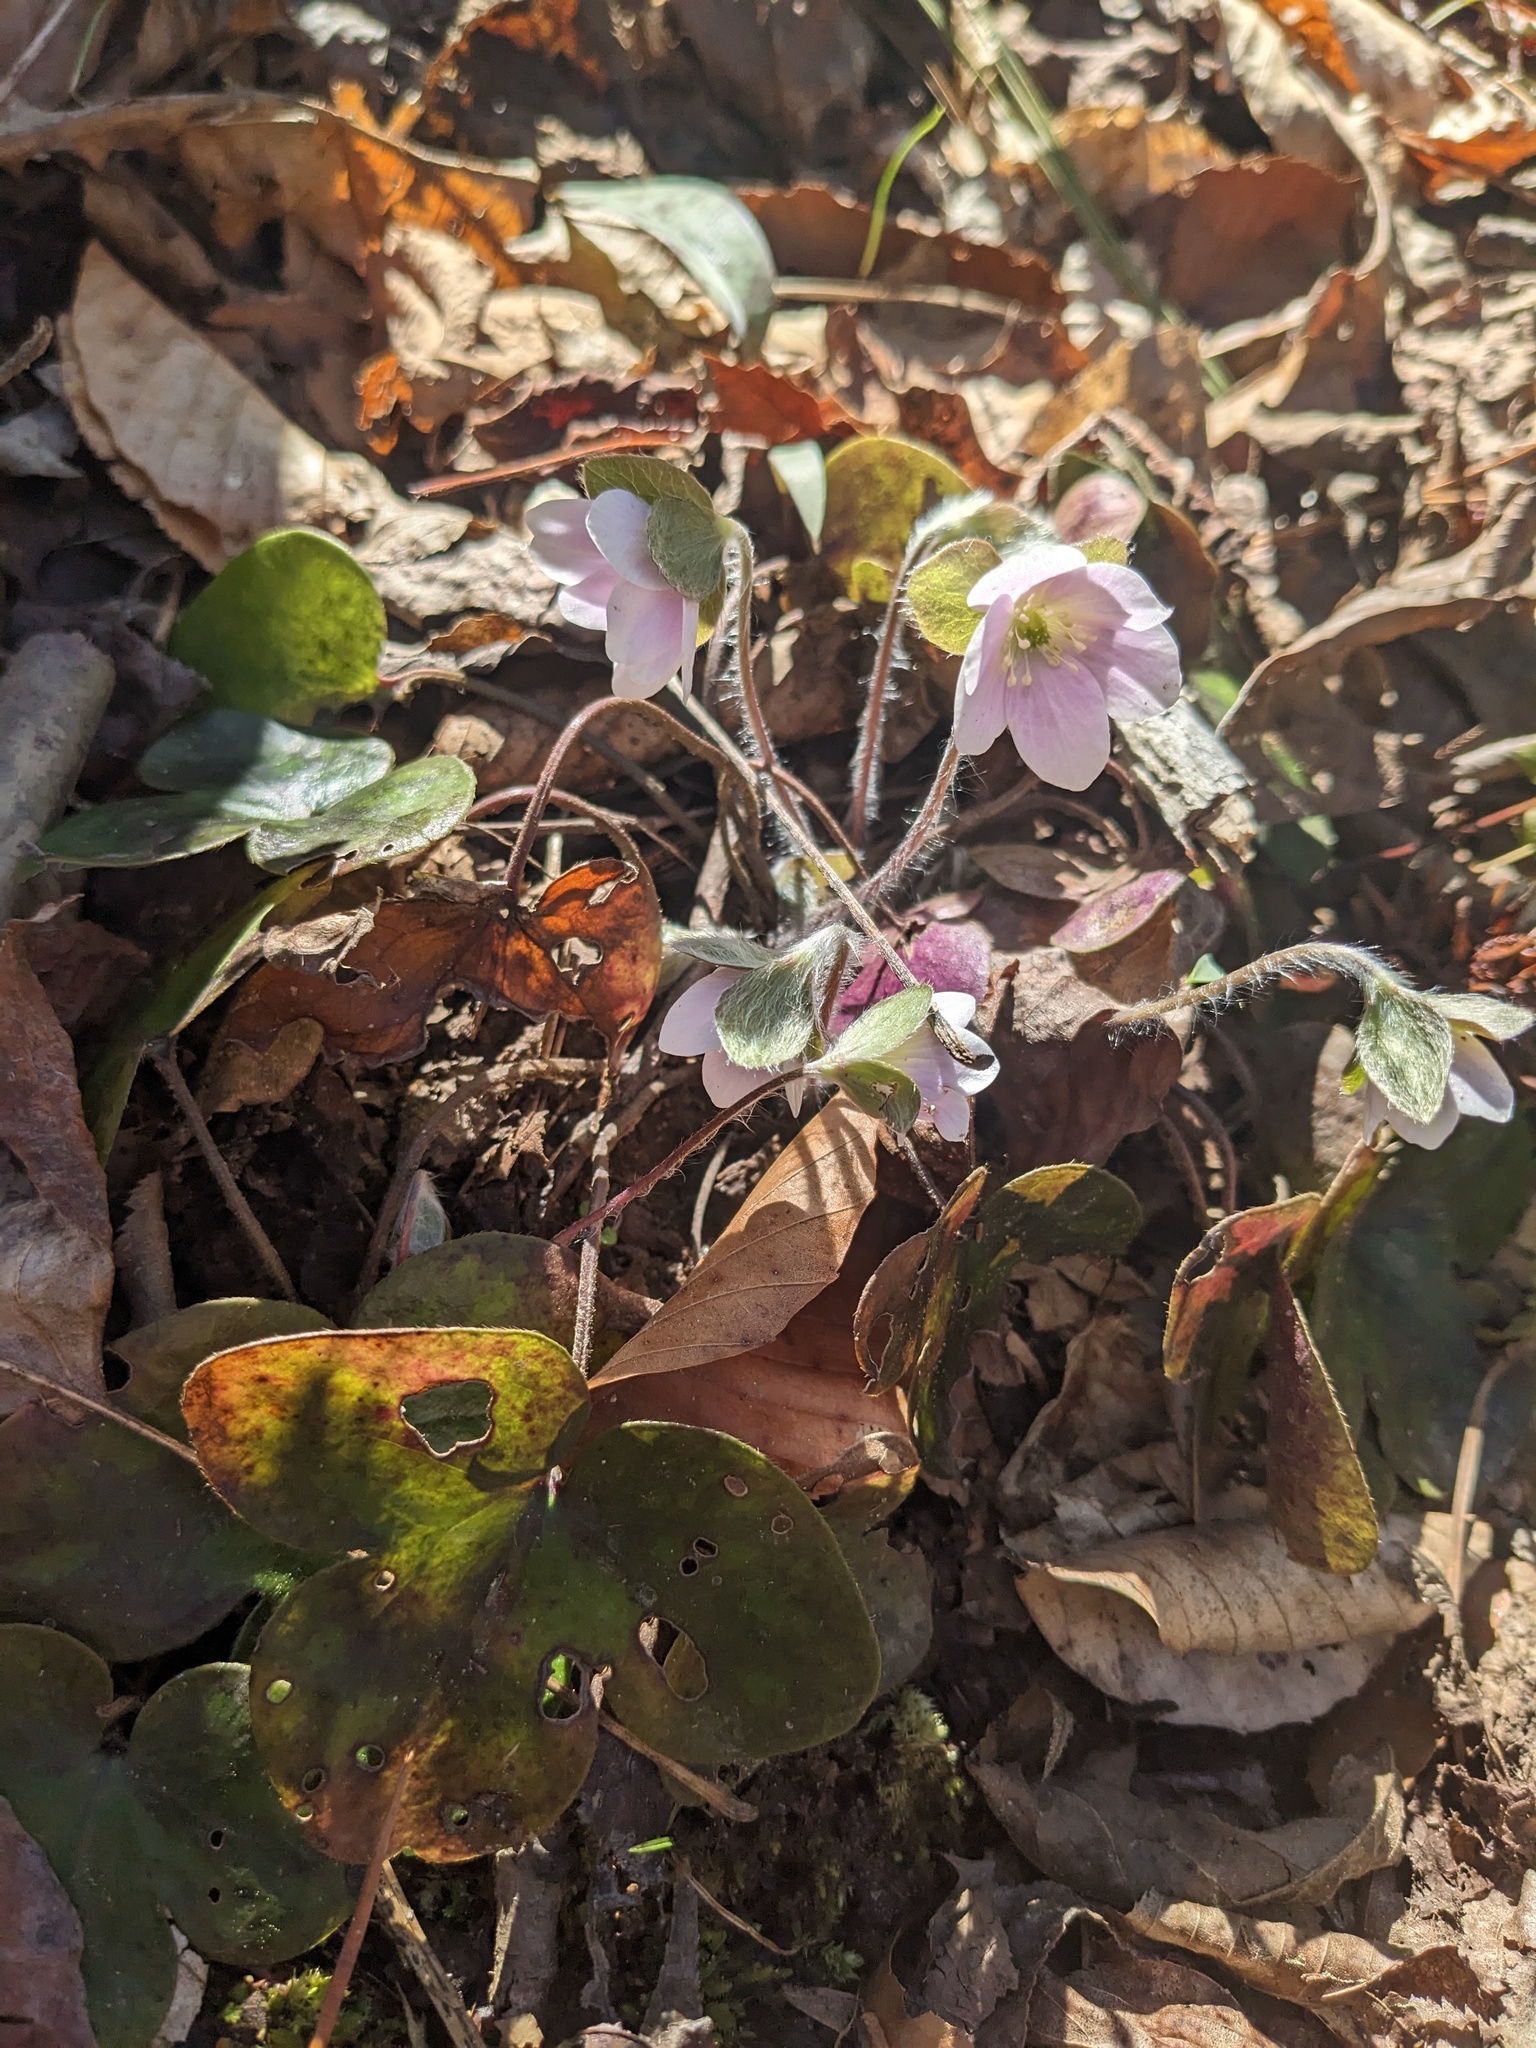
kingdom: Plantae
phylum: Tracheophyta
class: Magnoliopsida
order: Ranunculales
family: Ranunculaceae
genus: Hepatica
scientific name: Hepatica americana
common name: American hepatica
